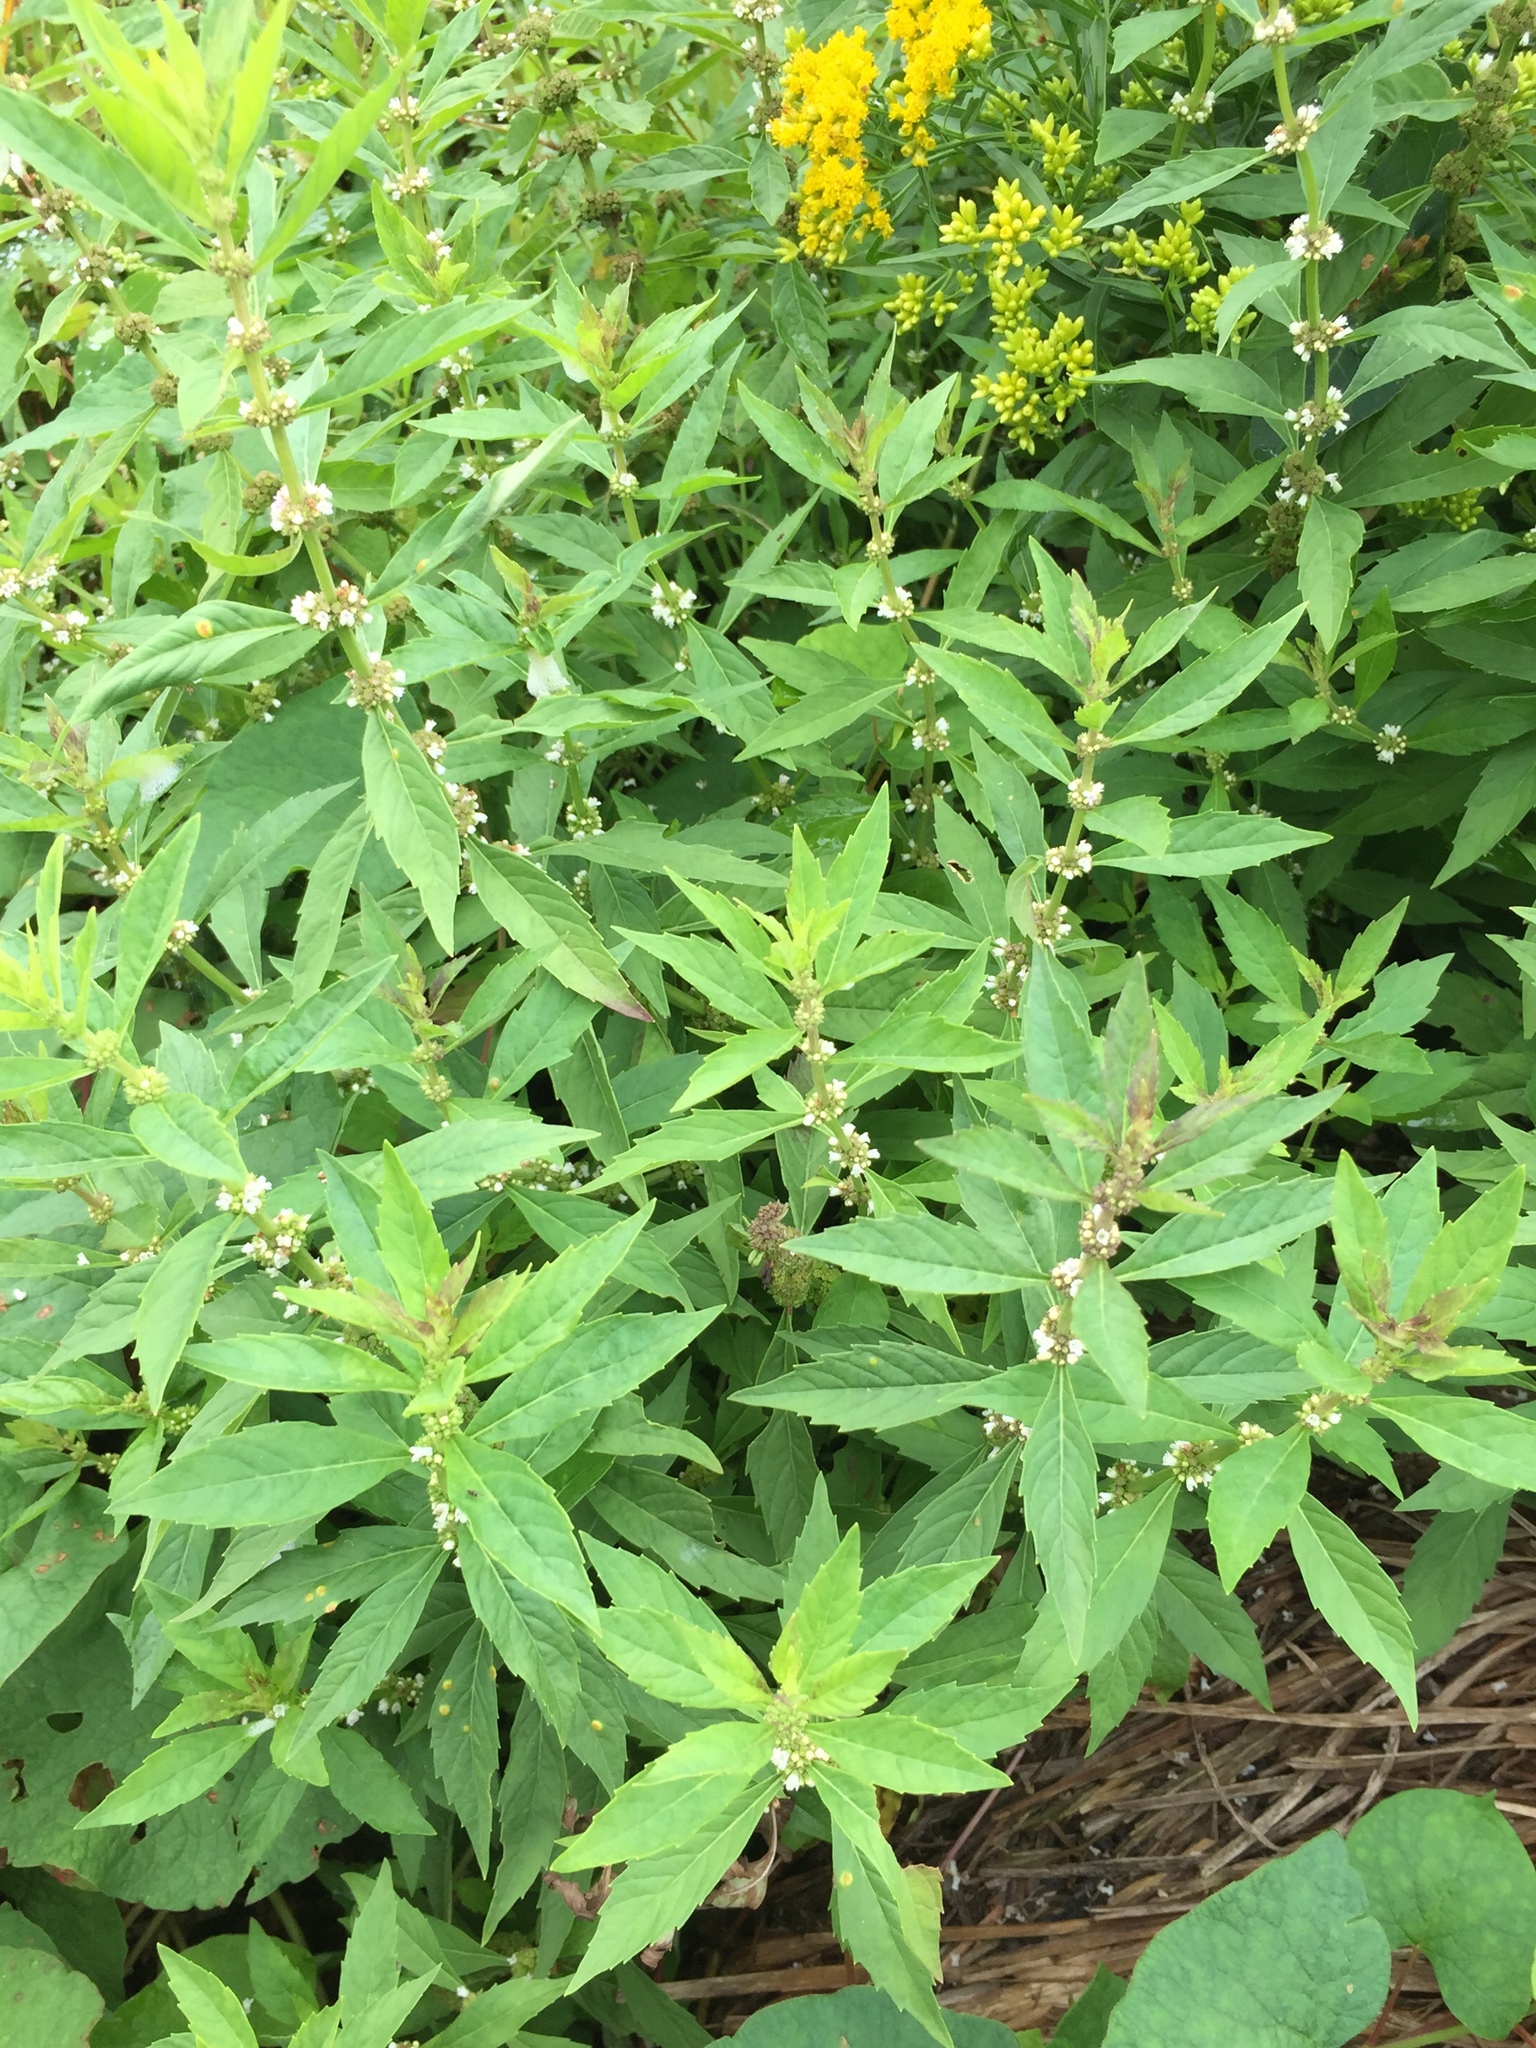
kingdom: Plantae
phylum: Tracheophyta
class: Magnoliopsida
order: Lamiales
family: Lamiaceae
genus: Lycopus
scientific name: Lycopus uniflorus
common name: Northern bugleweed
